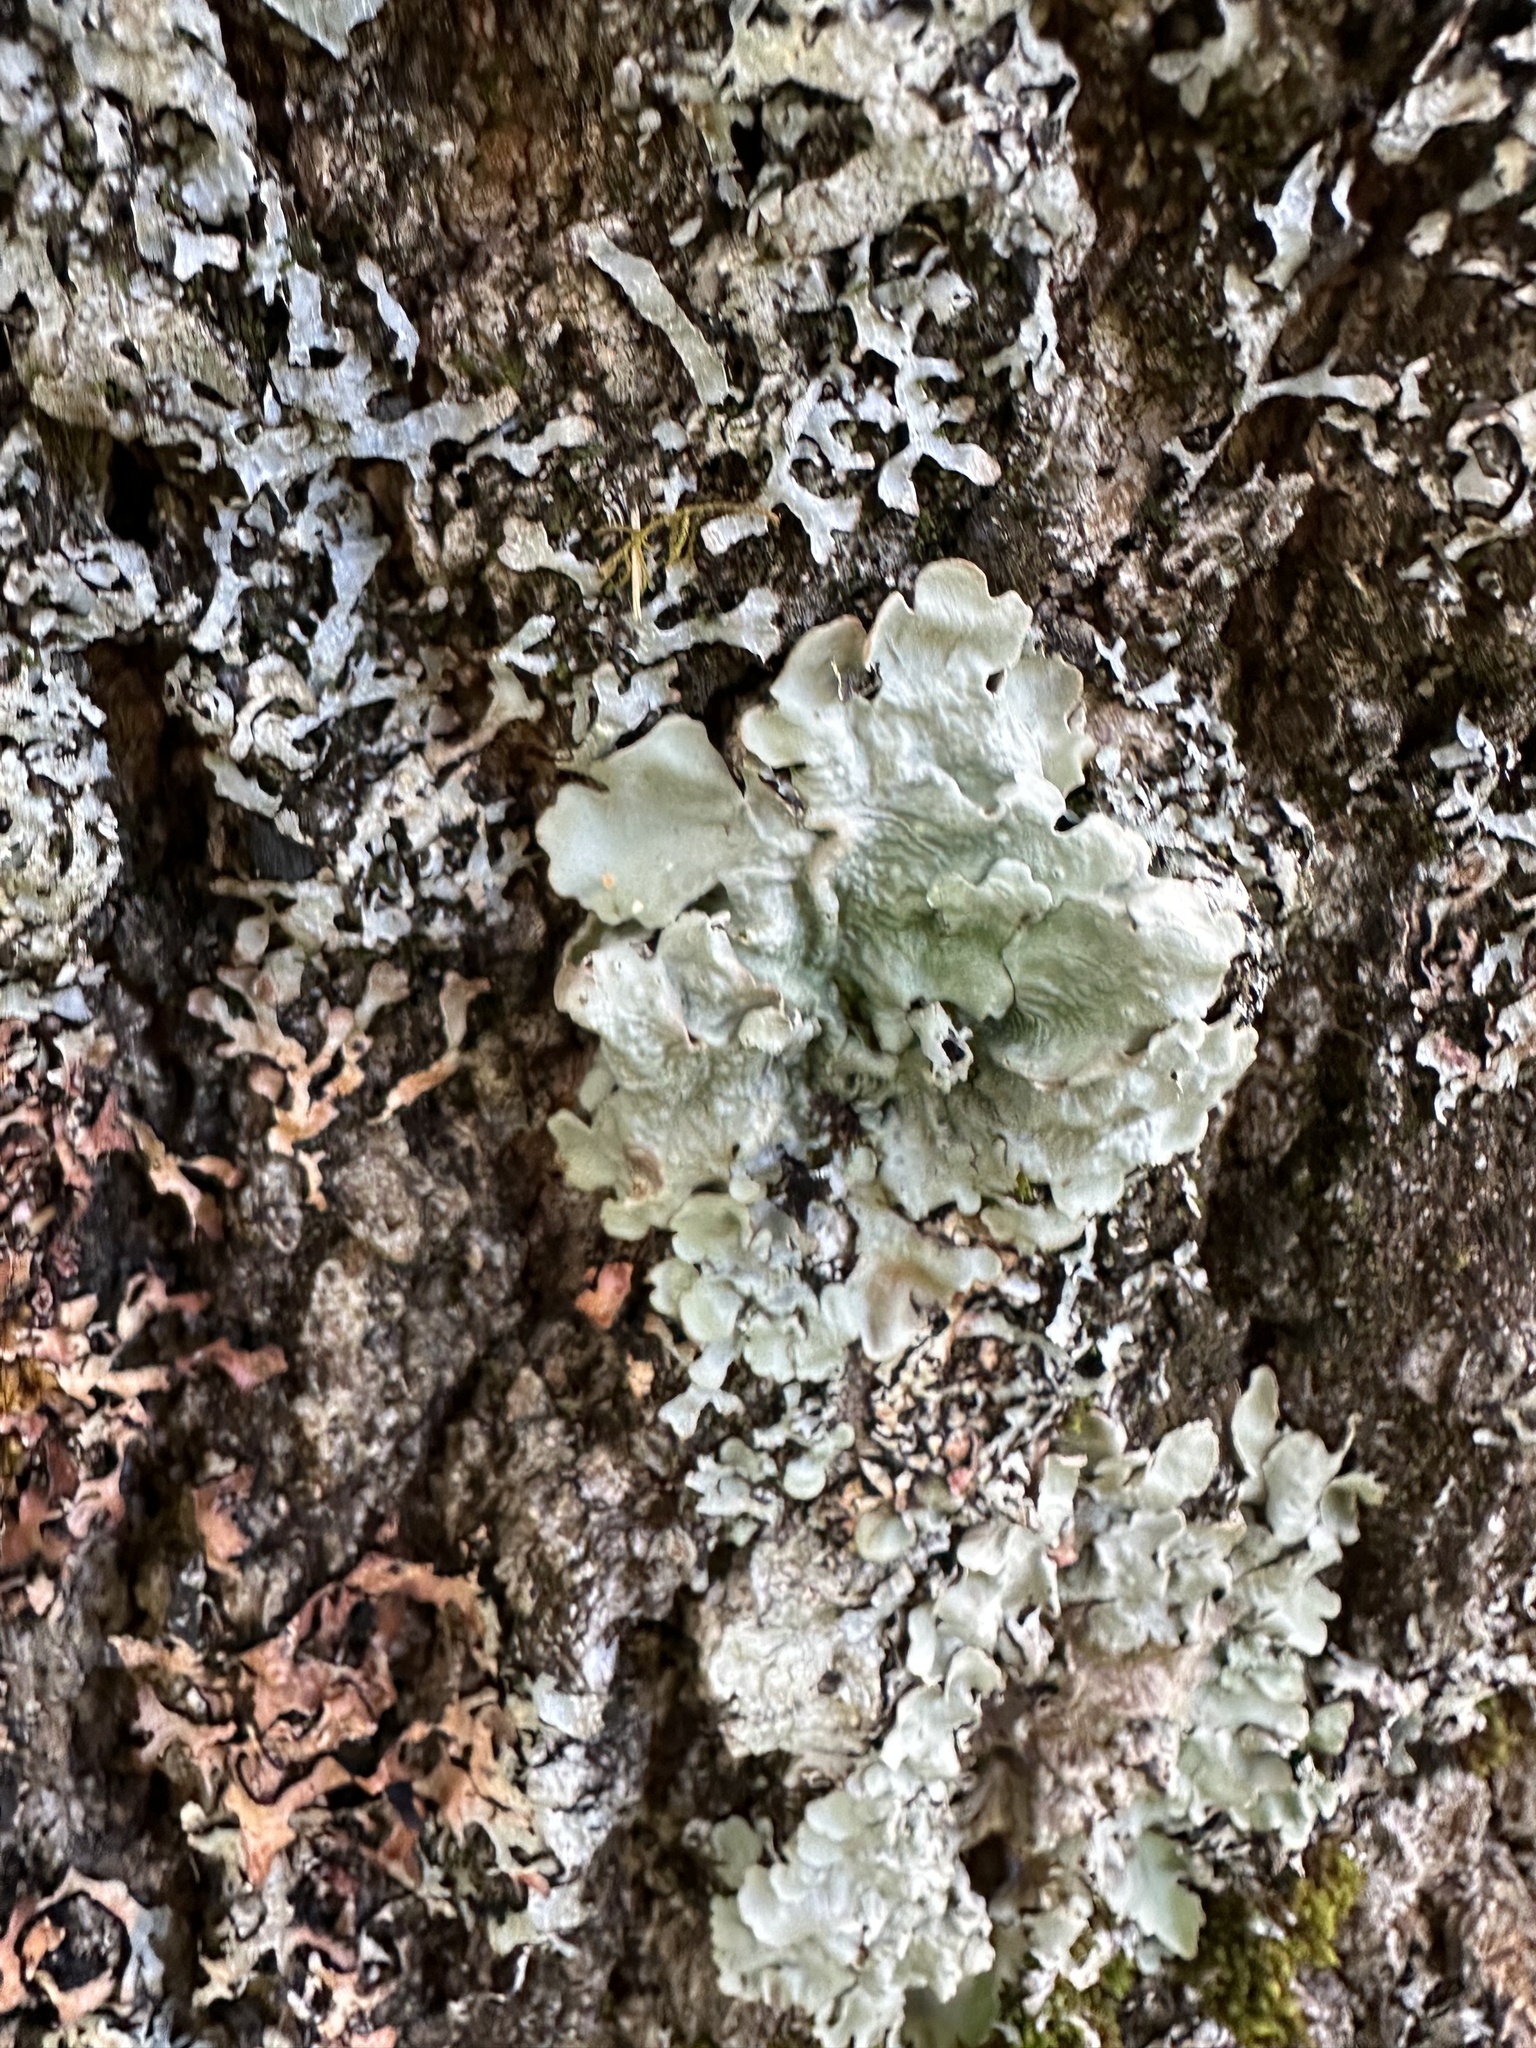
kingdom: Fungi
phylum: Ascomycota
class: Lecanoromycetes
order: Peltigerales
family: Lobariaceae
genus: Ricasolia
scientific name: Ricasolia quercizans
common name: Smooth lungwort
